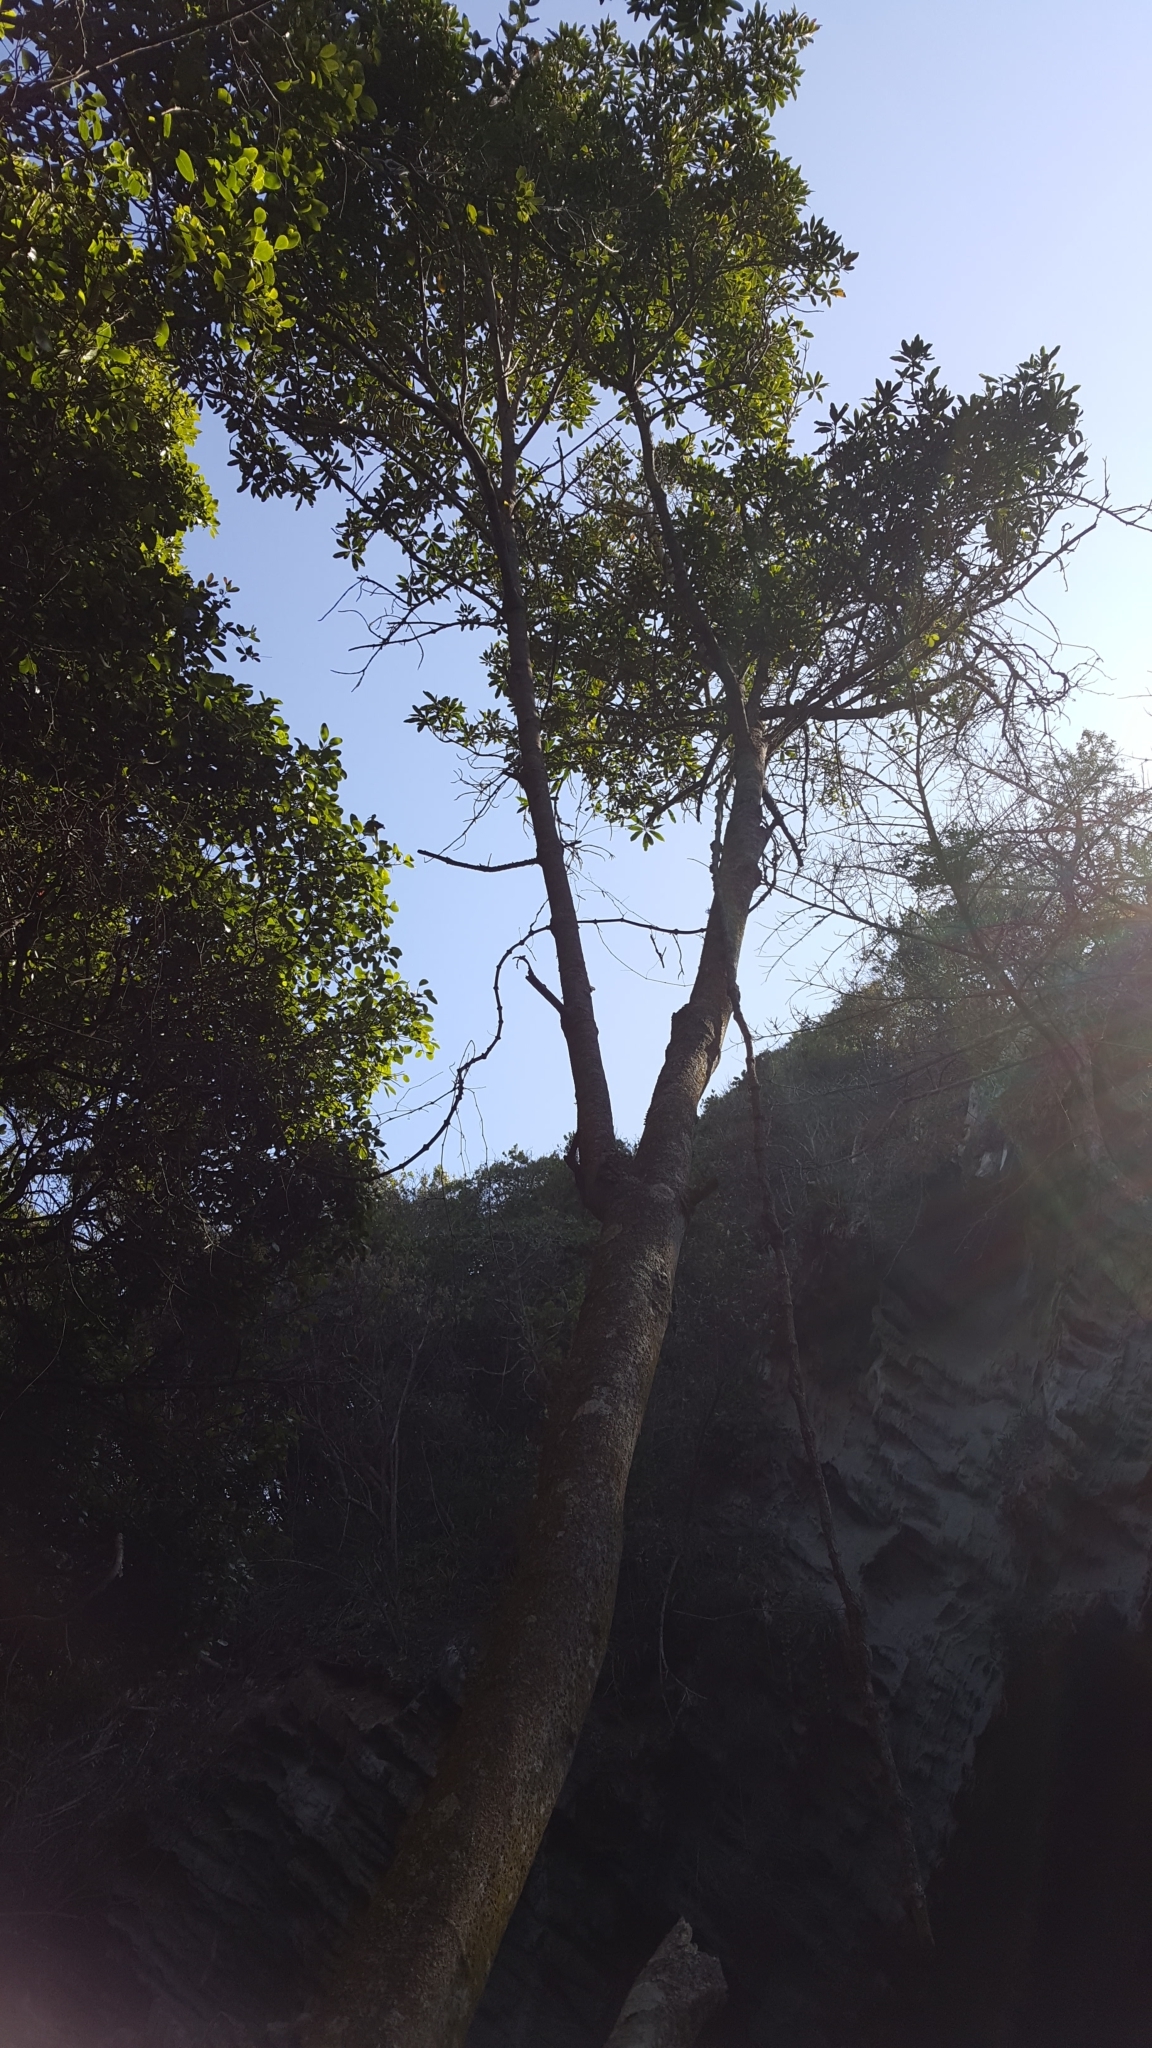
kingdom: Plantae
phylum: Tracheophyta
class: Magnoliopsida
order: Ericales
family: Primulaceae
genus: Myrsine
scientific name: Myrsine melanophloeos
